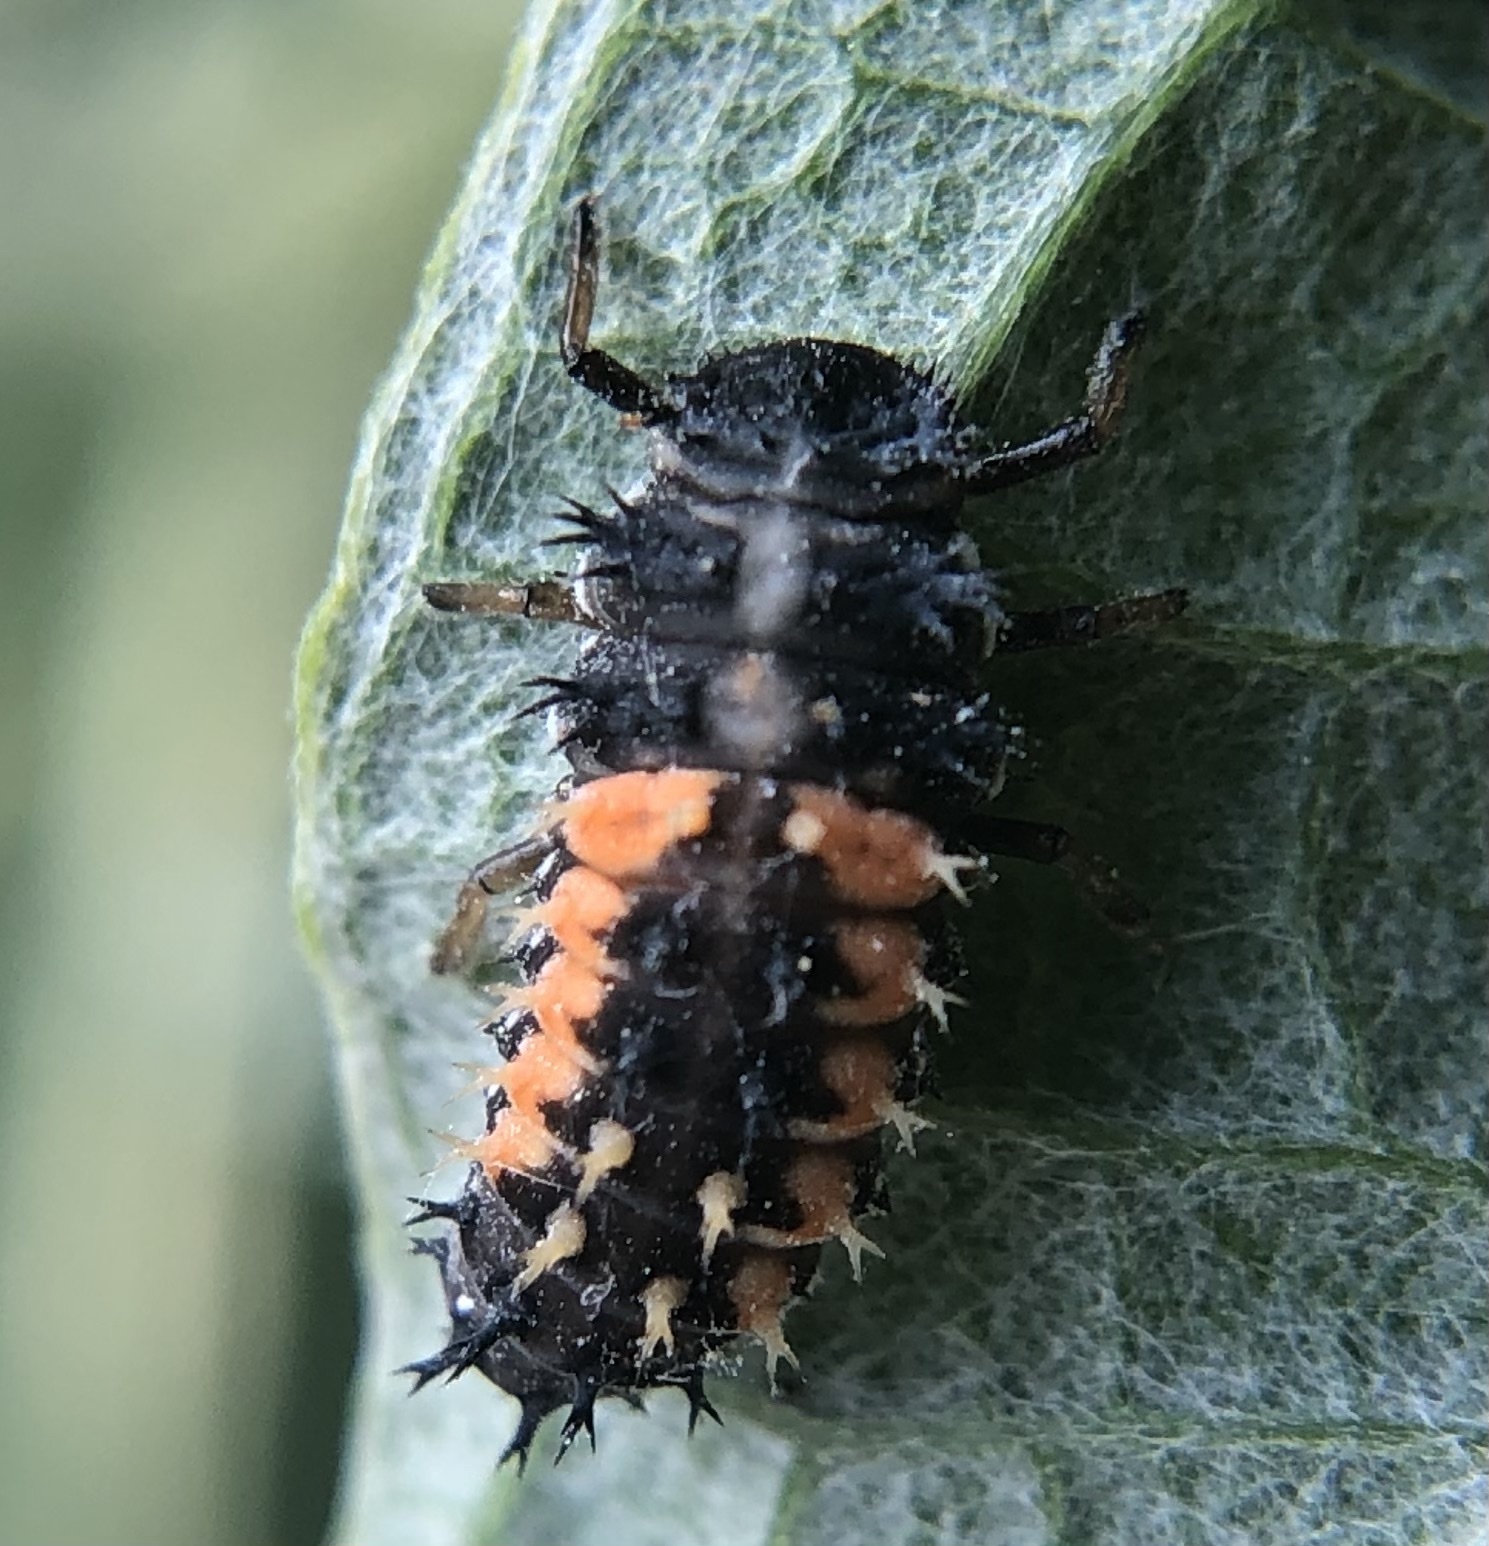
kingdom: Animalia
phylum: Arthropoda
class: Insecta
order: Coleoptera
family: Coccinellidae
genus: Harmonia
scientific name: Harmonia axyridis
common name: Harlequin ladybird
